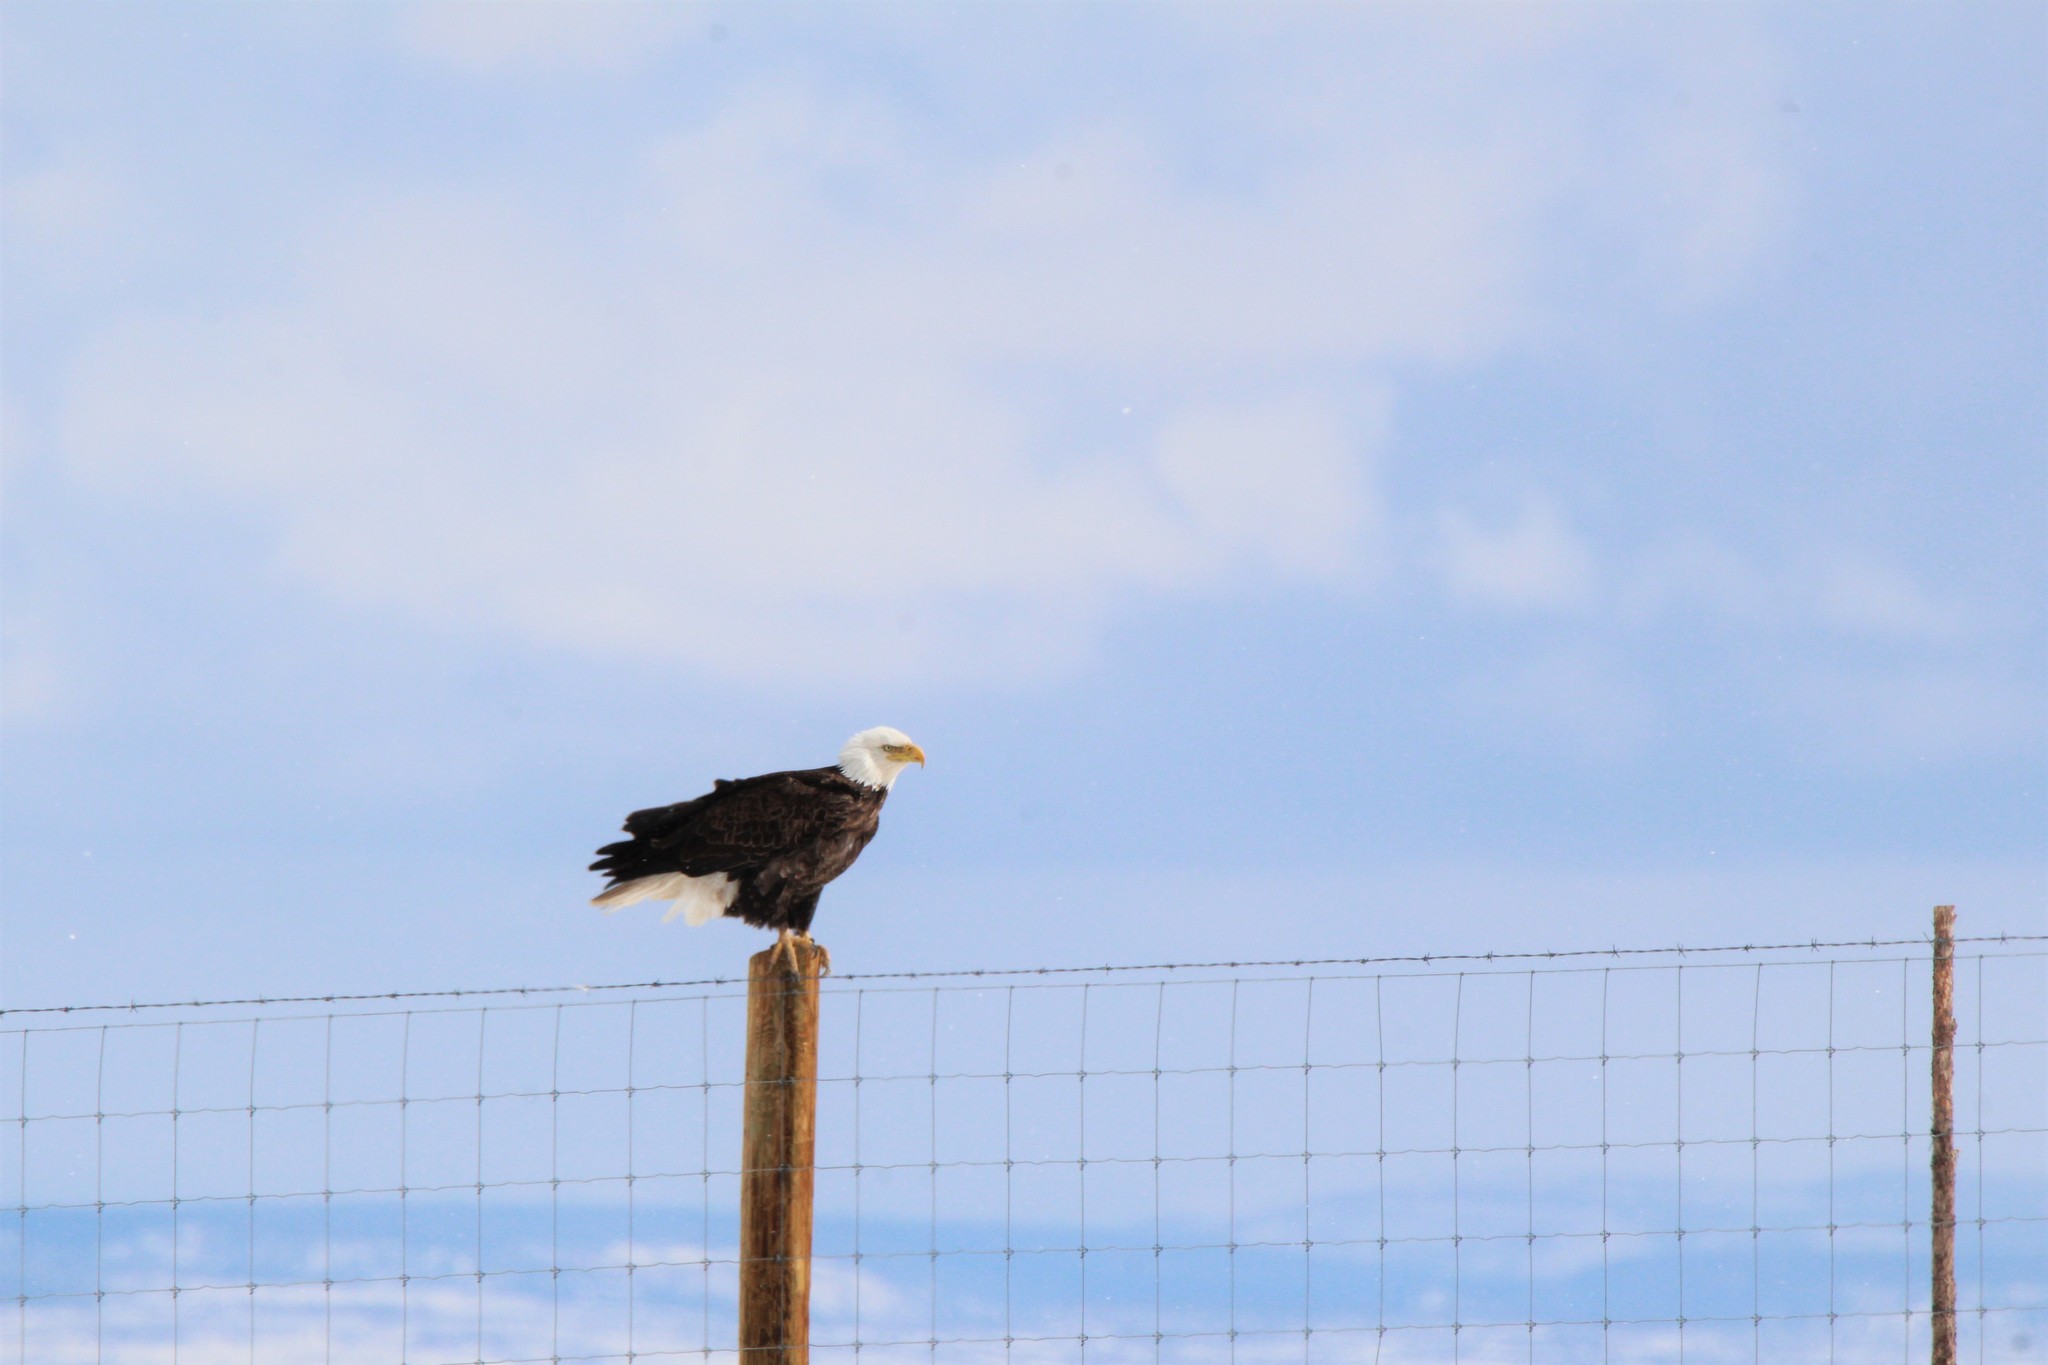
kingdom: Animalia
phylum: Chordata
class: Aves
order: Accipitriformes
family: Accipitridae
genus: Haliaeetus
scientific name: Haliaeetus leucocephalus
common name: Bald eagle
